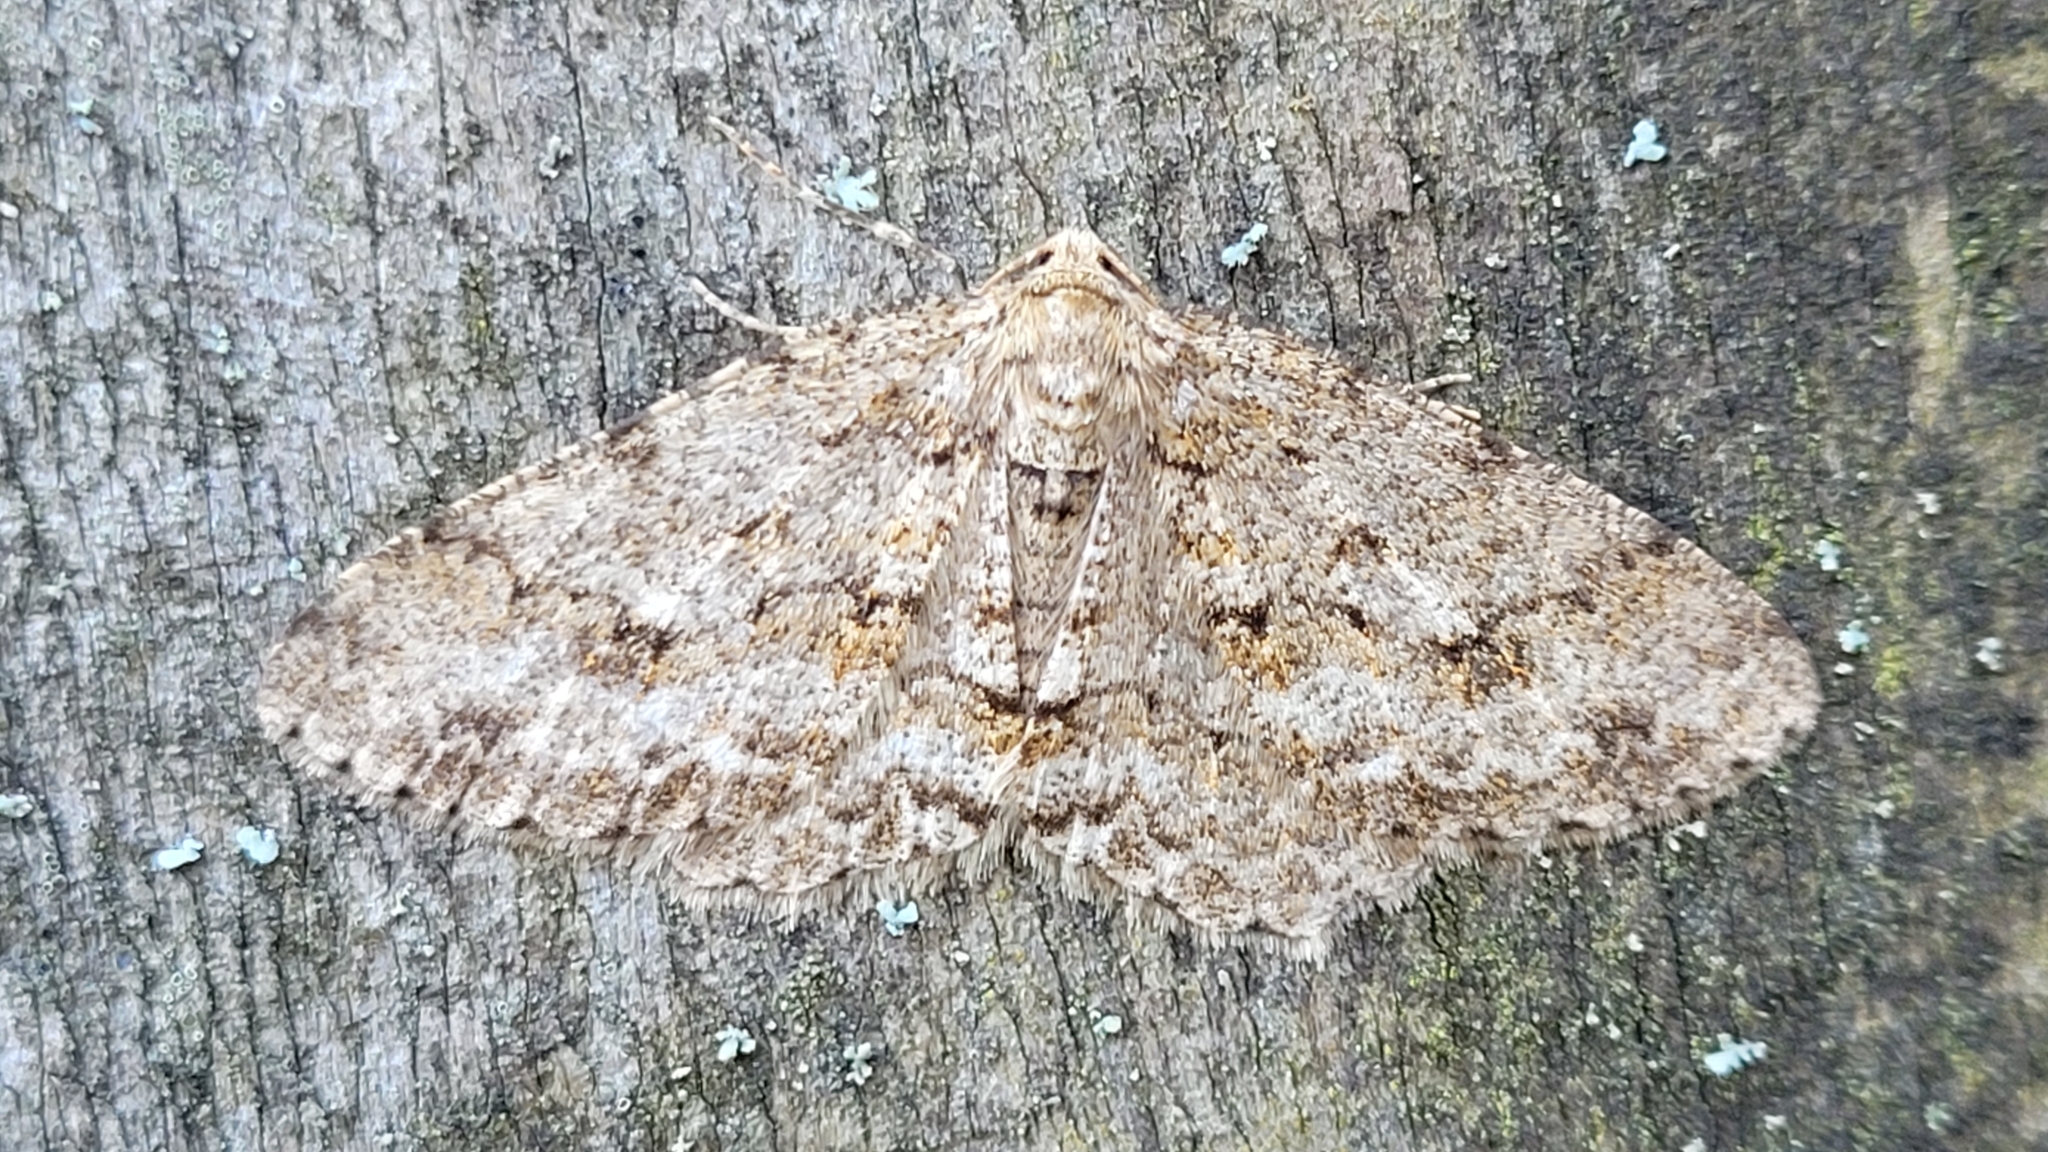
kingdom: Animalia
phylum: Arthropoda
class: Insecta
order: Lepidoptera
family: Geometridae
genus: Ectropis
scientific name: Ectropis crepuscularia
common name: Engrailed
